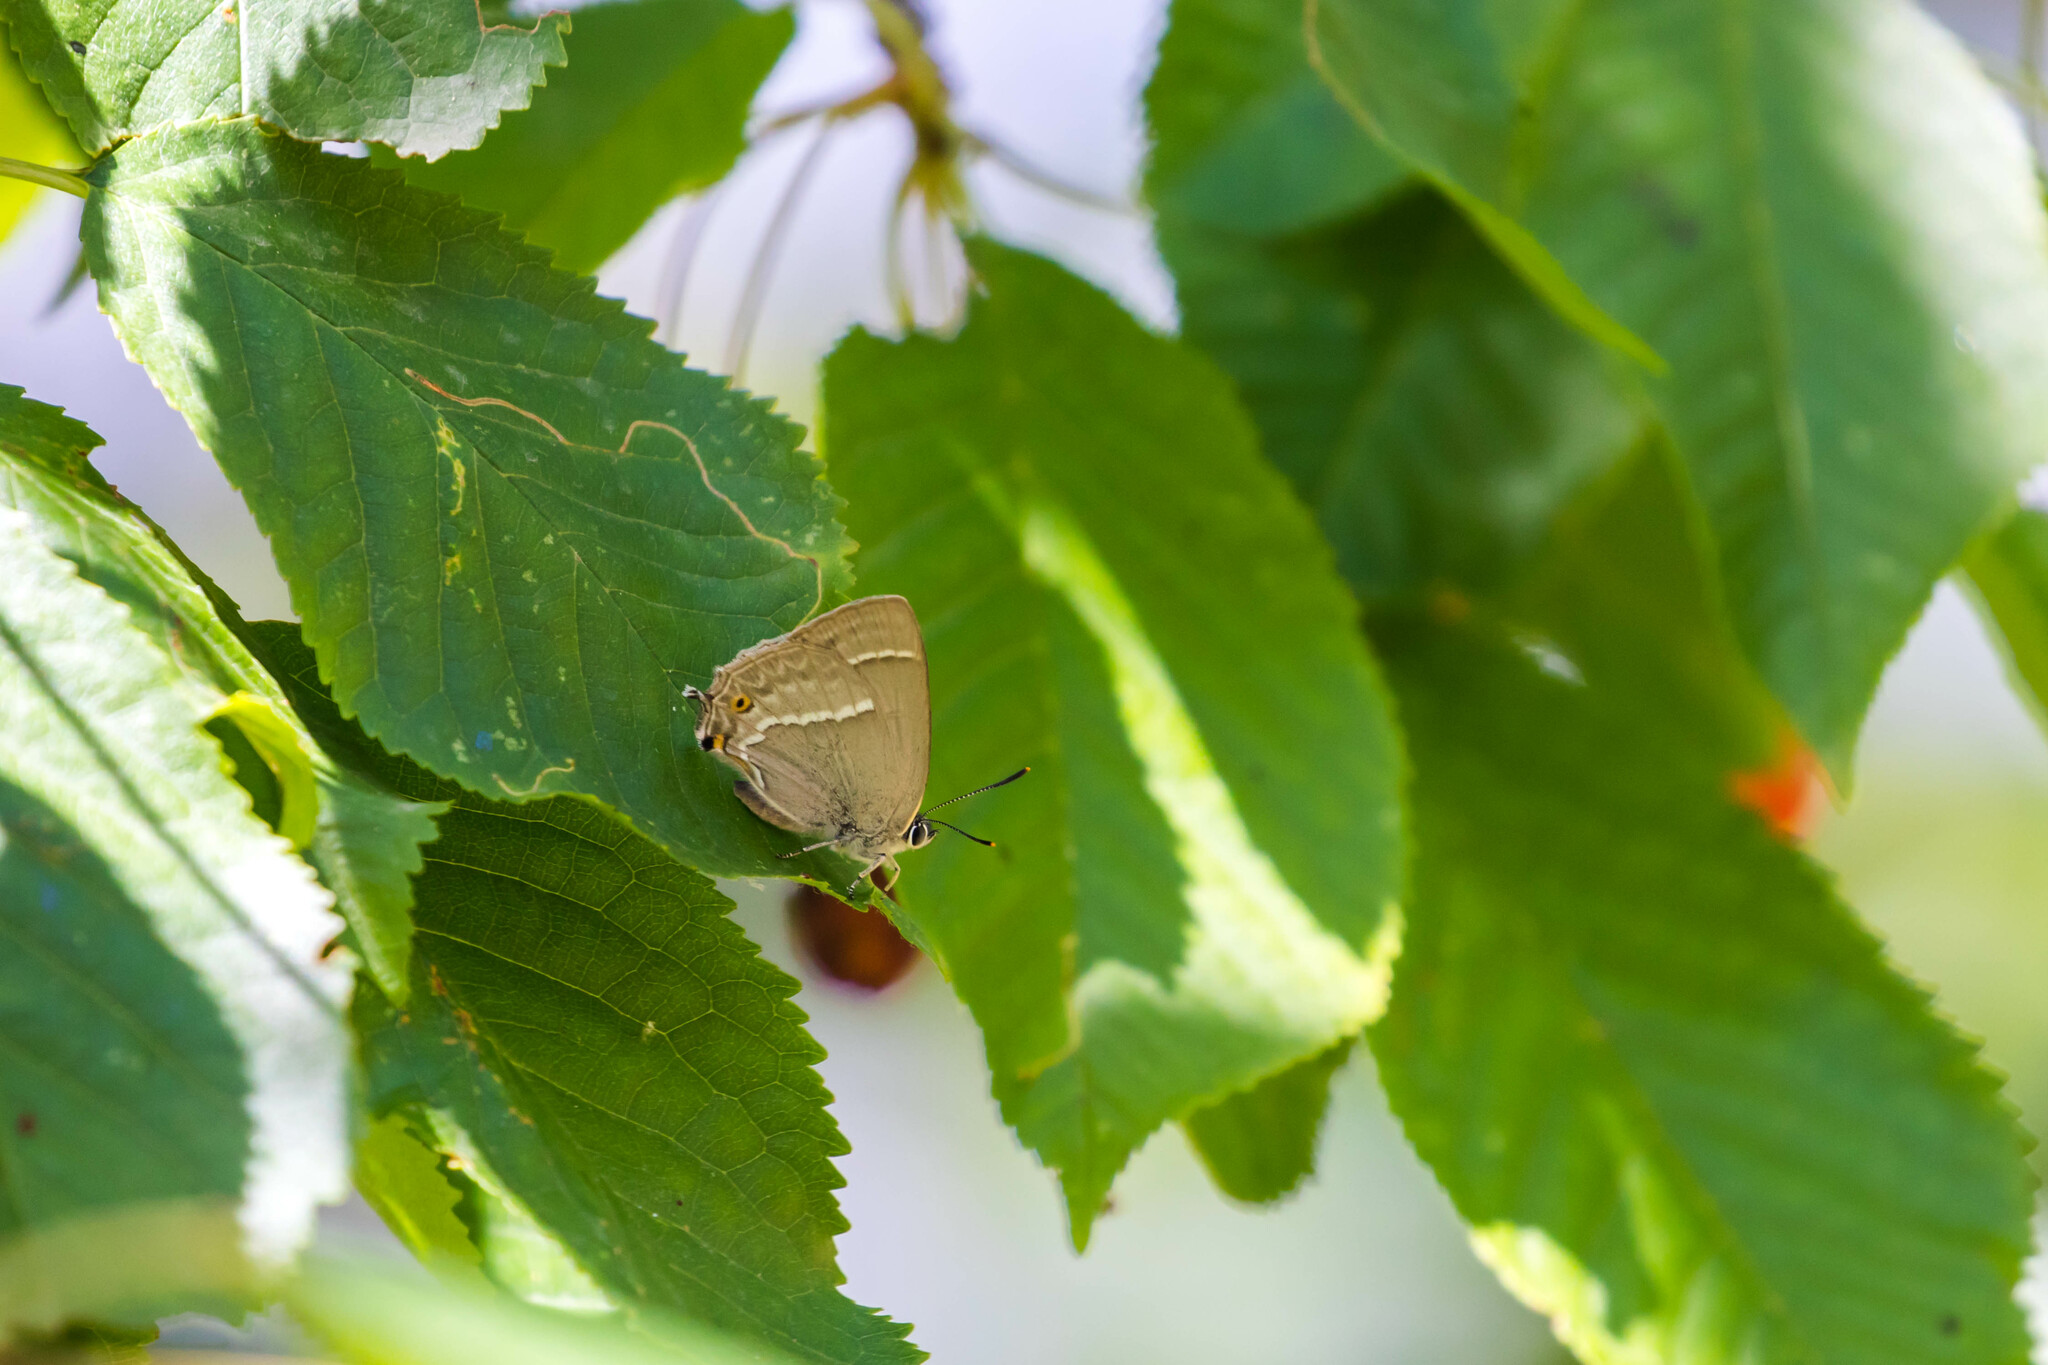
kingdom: Animalia
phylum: Arthropoda
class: Insecta
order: Lepidoptera
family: Lycaenidae
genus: Quercusia
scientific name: Quercusia quercus
